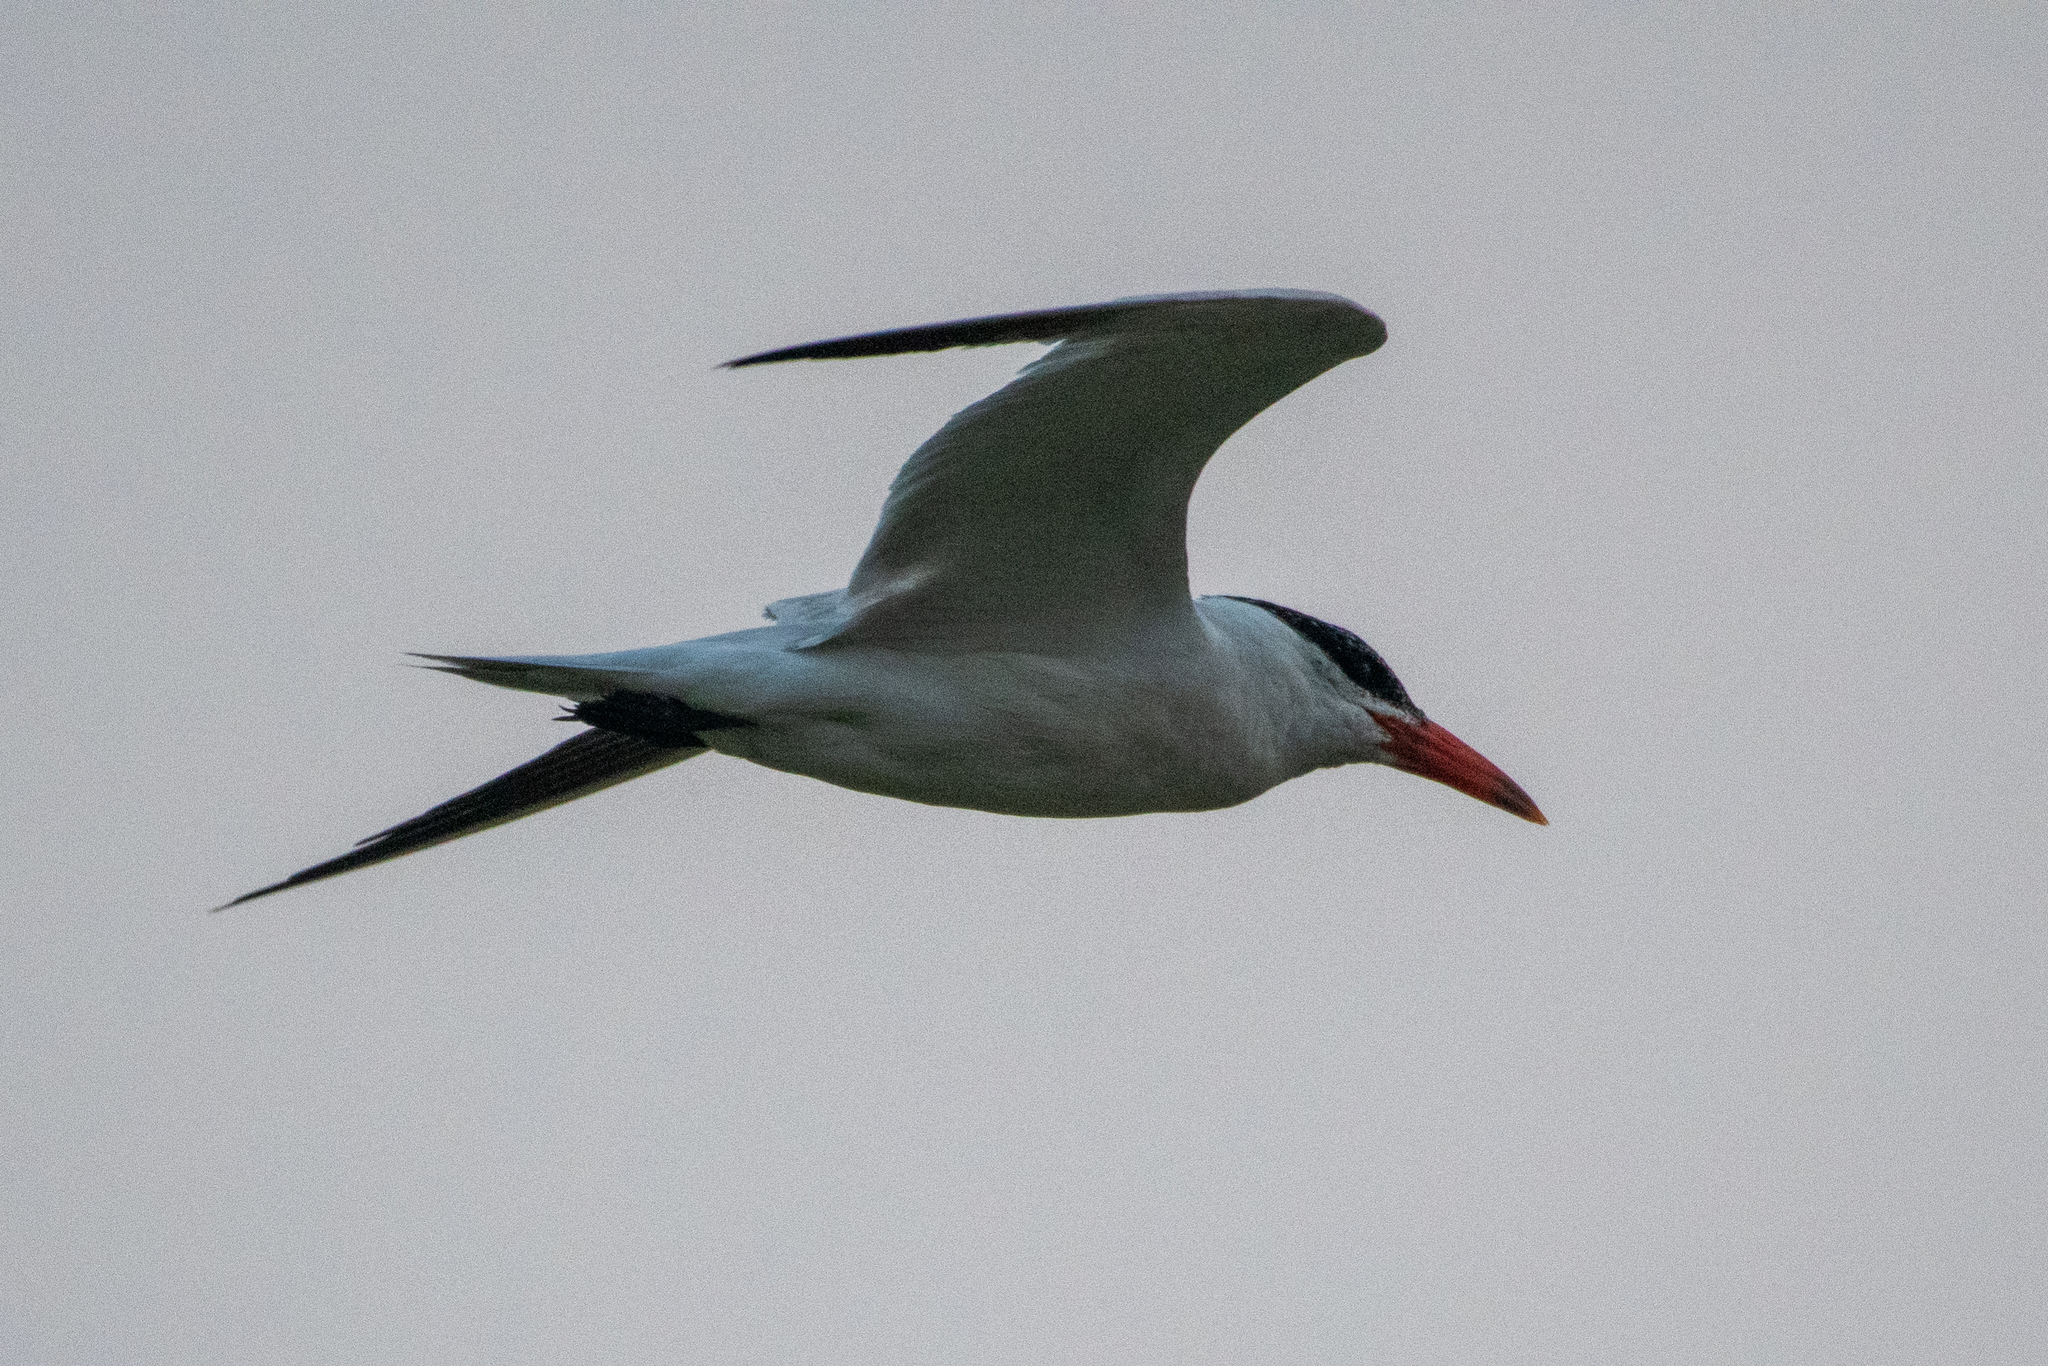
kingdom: Animalia
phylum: Chordata
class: Aves
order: Charadriiformes
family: Laridae
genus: Hydroprogne
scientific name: Hydroprogne caspia
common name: Caspian tern
